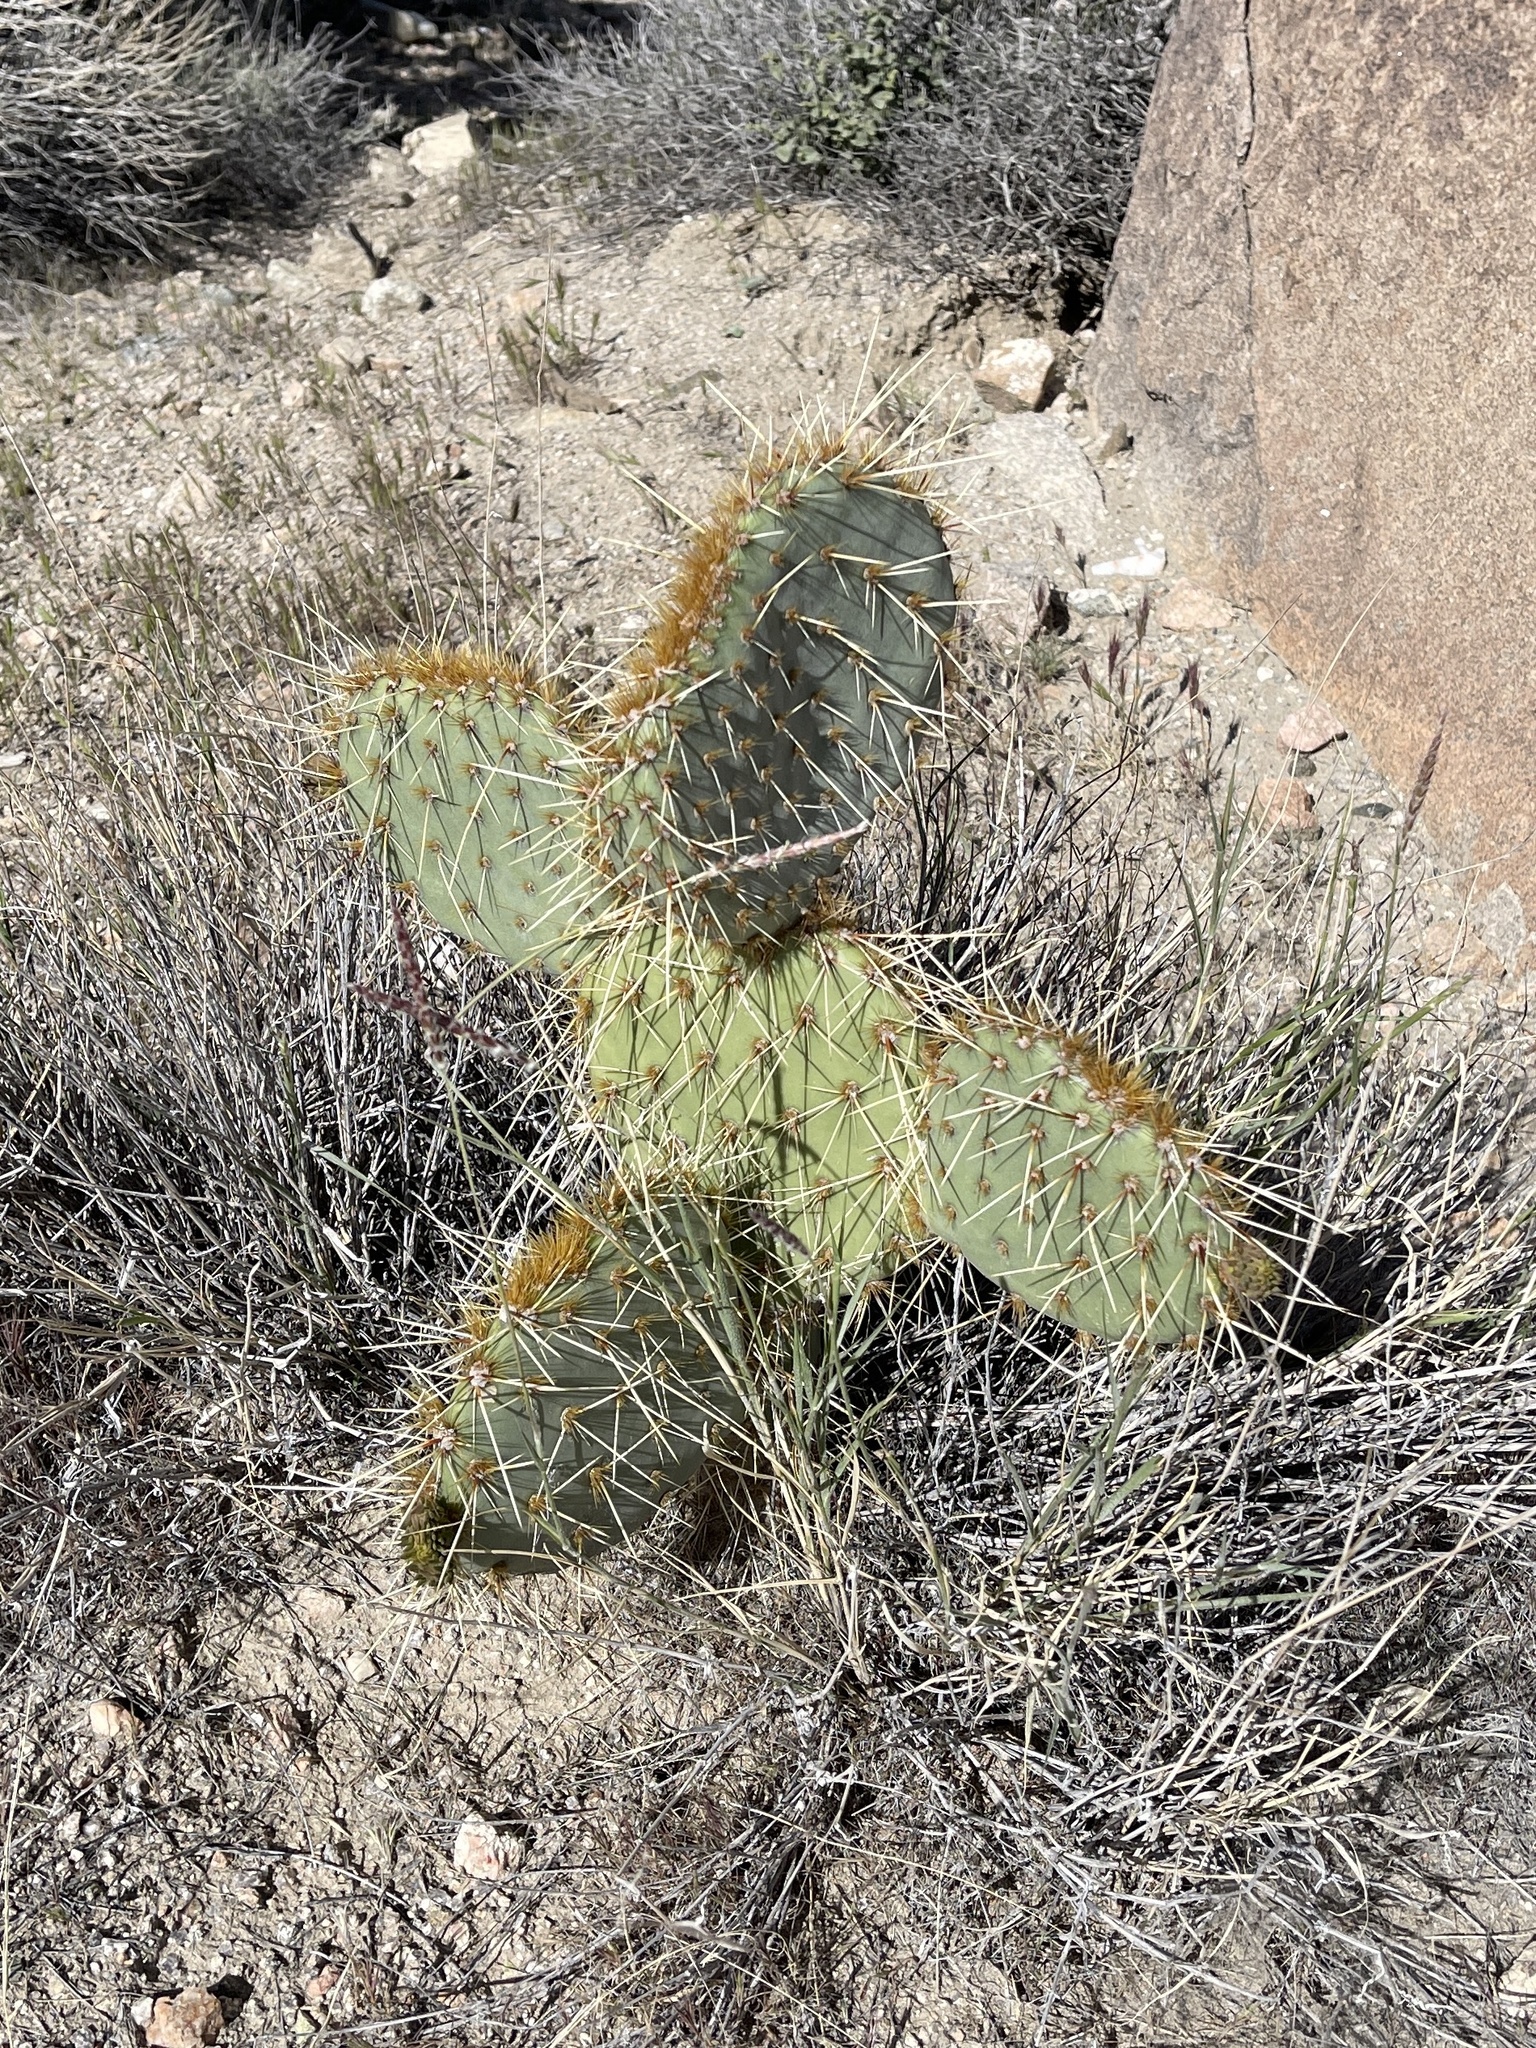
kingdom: Plantae
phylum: Tracheophyta
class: Magnoliopsida
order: Caryophyllales
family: Cactaceae
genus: Opuntia
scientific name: Opuntia curvispina
